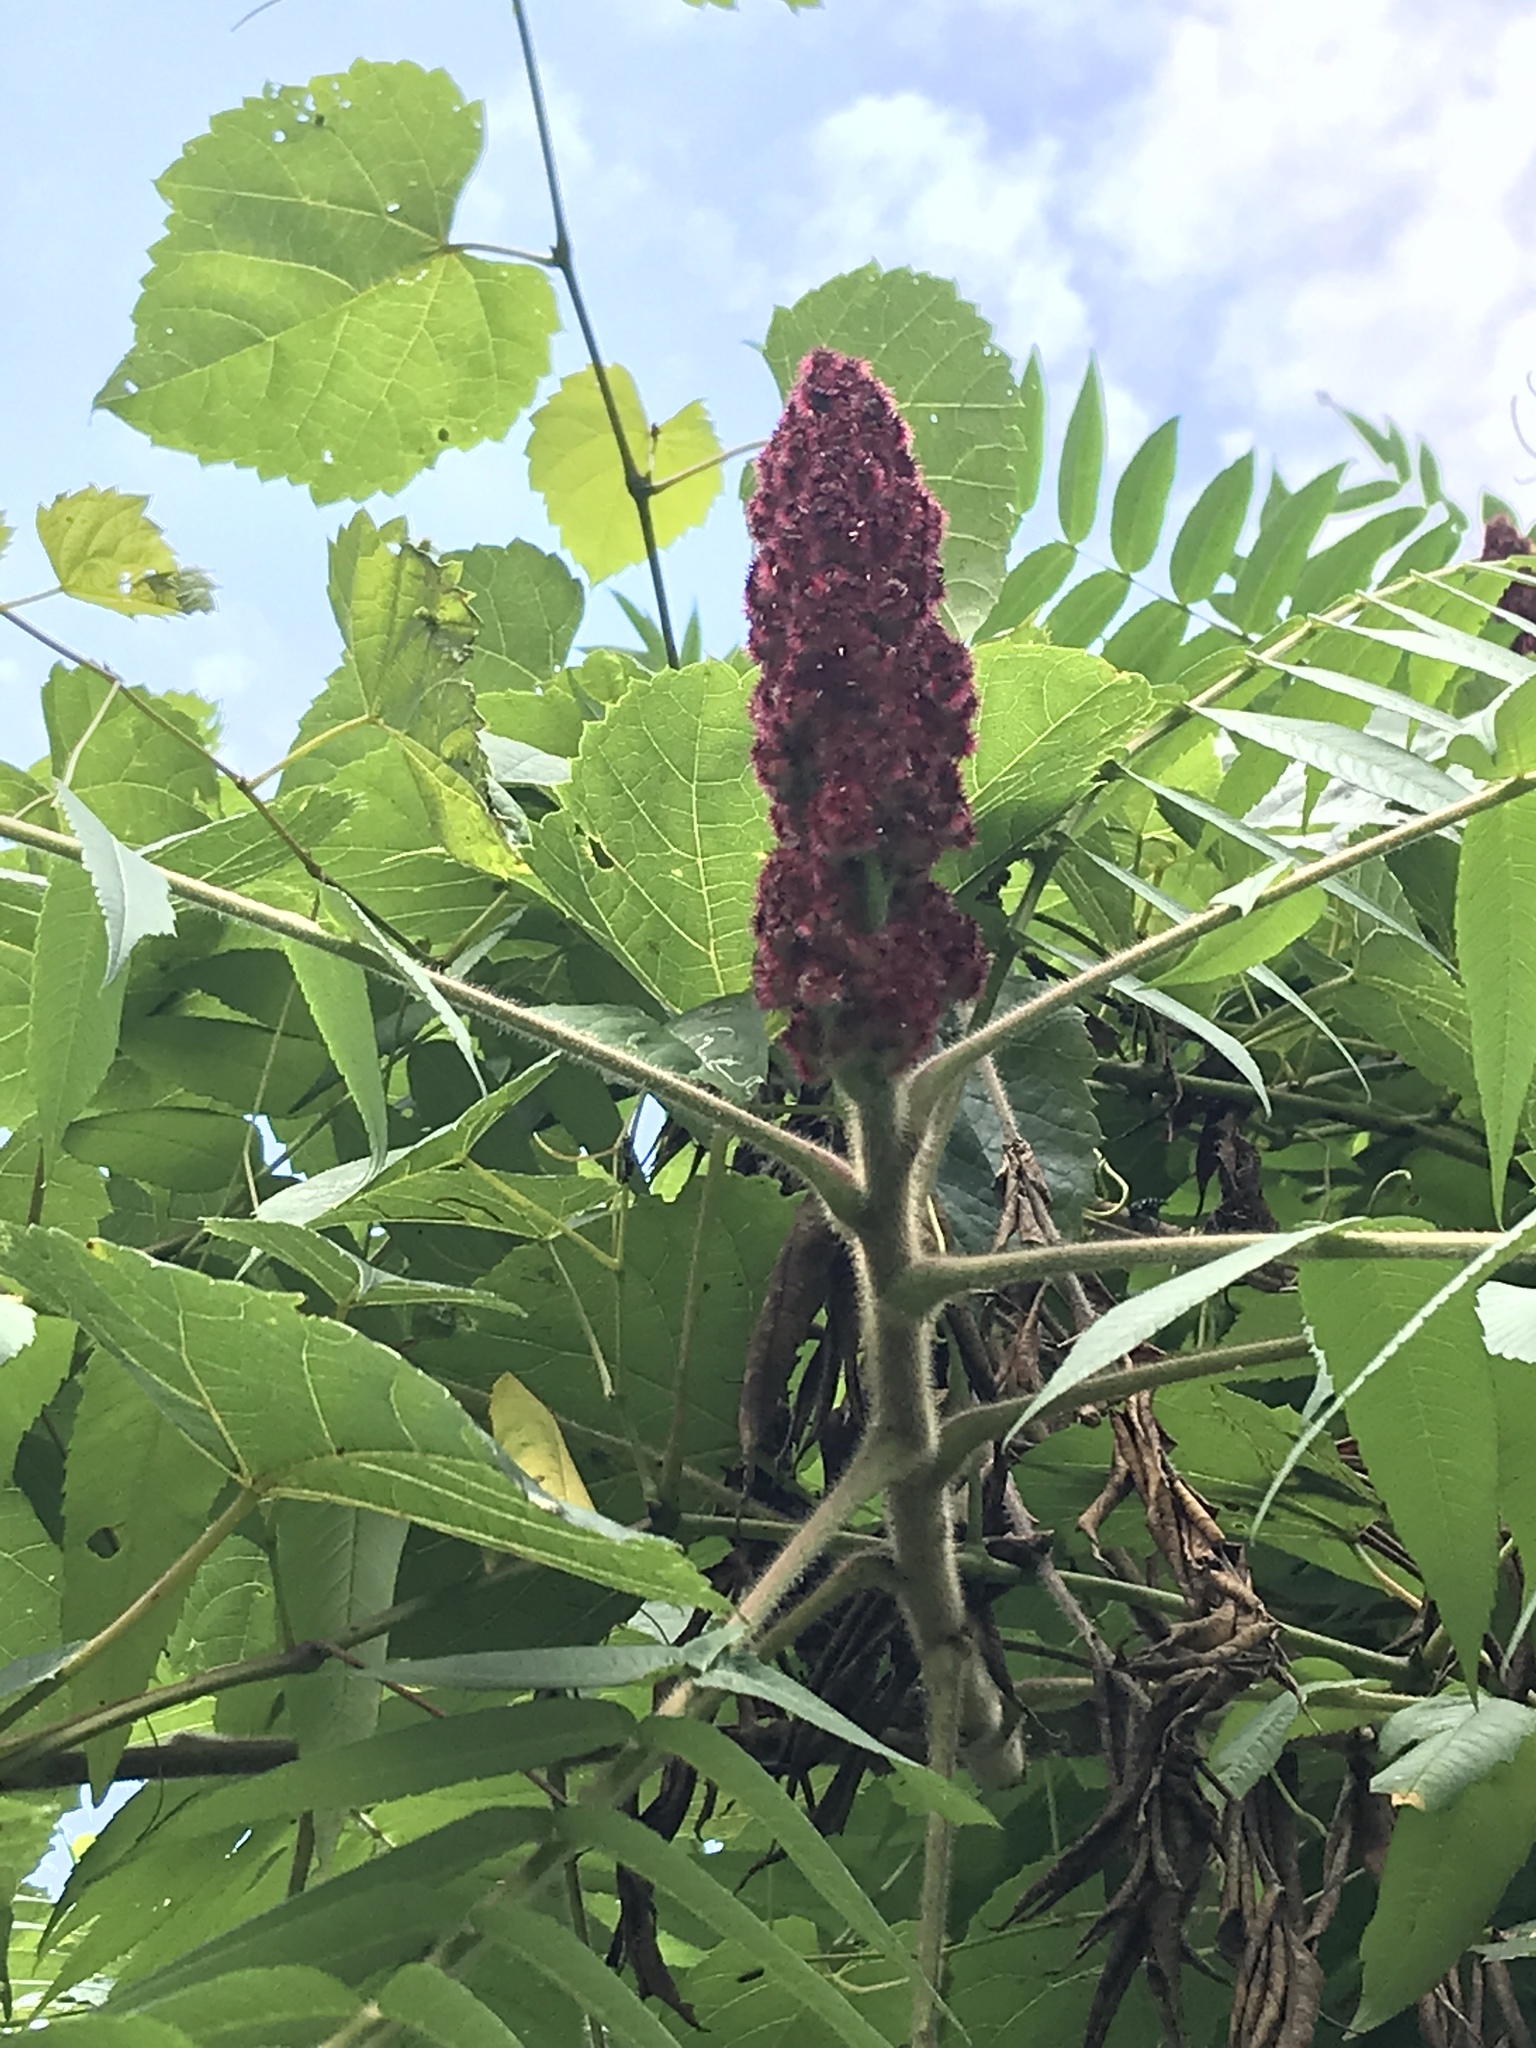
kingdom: Plantae
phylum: Tracheophyta
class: Magnoliopsida
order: Sapindales
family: Anacardiaceae
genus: Rhus
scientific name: Rhus typhina
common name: Staghorn sumac
